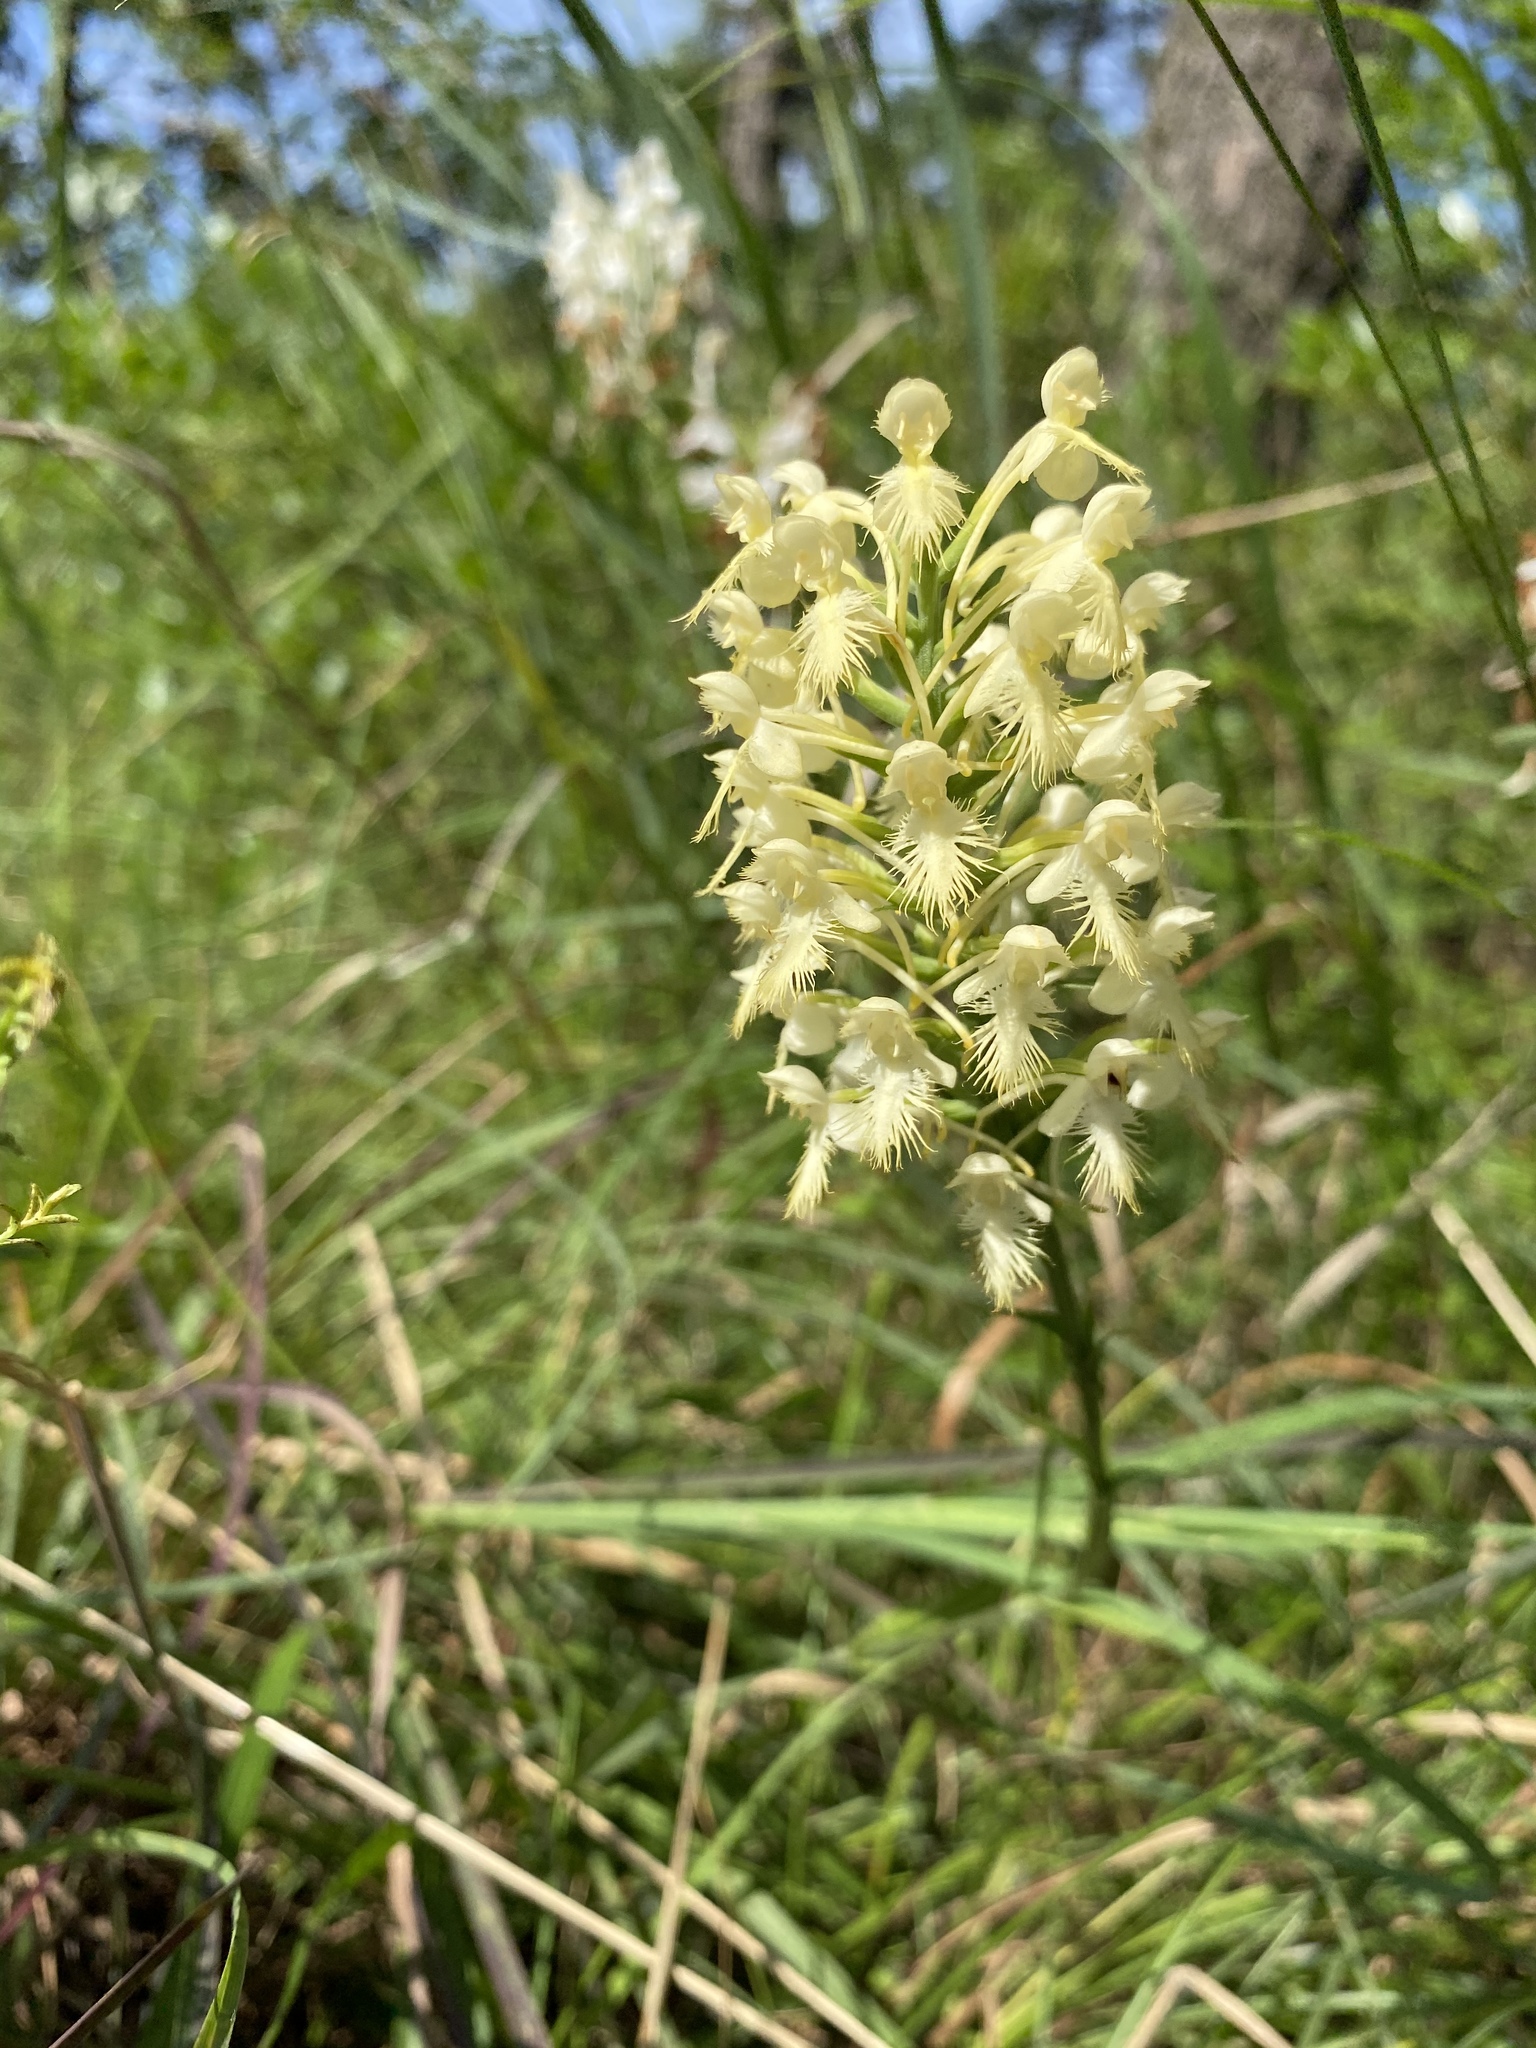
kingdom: Plantae
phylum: Tracheophyta
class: Liliopsida
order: Asparagales
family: Orchidaceae
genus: Platanthera
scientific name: Platanthera canbyi
